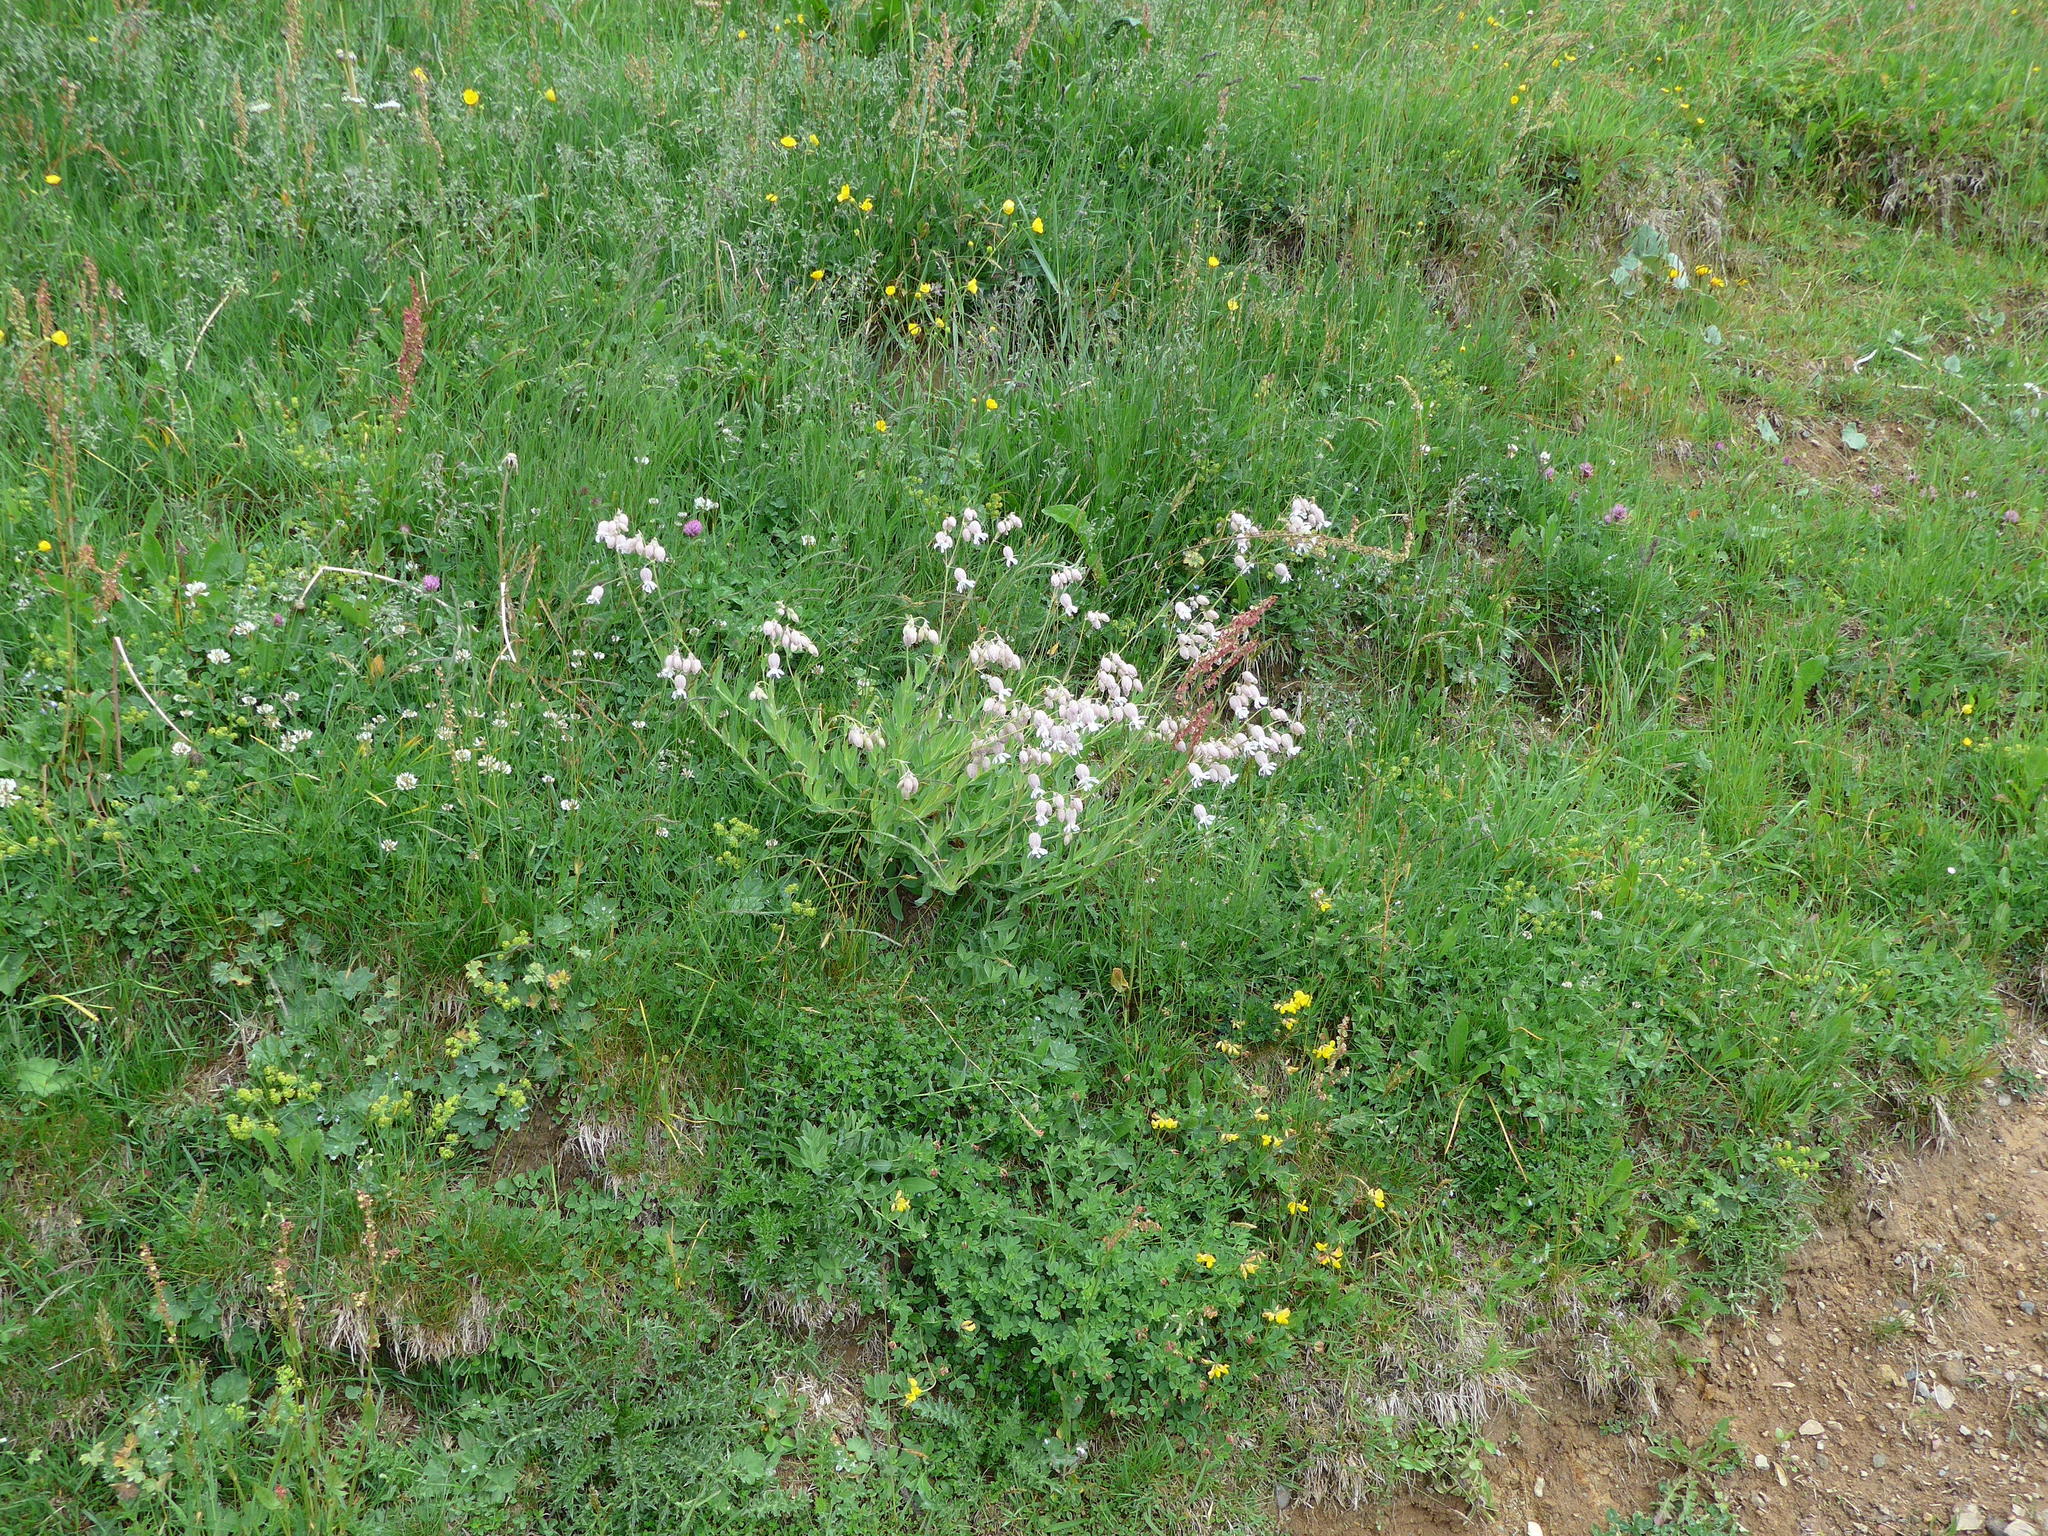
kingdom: Plantae
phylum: Tracheophyta
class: Magnoliopsida
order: Caryophyllales
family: Caryophyllaceae
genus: Silene
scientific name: Silene vulgaris
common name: Bladder campion
